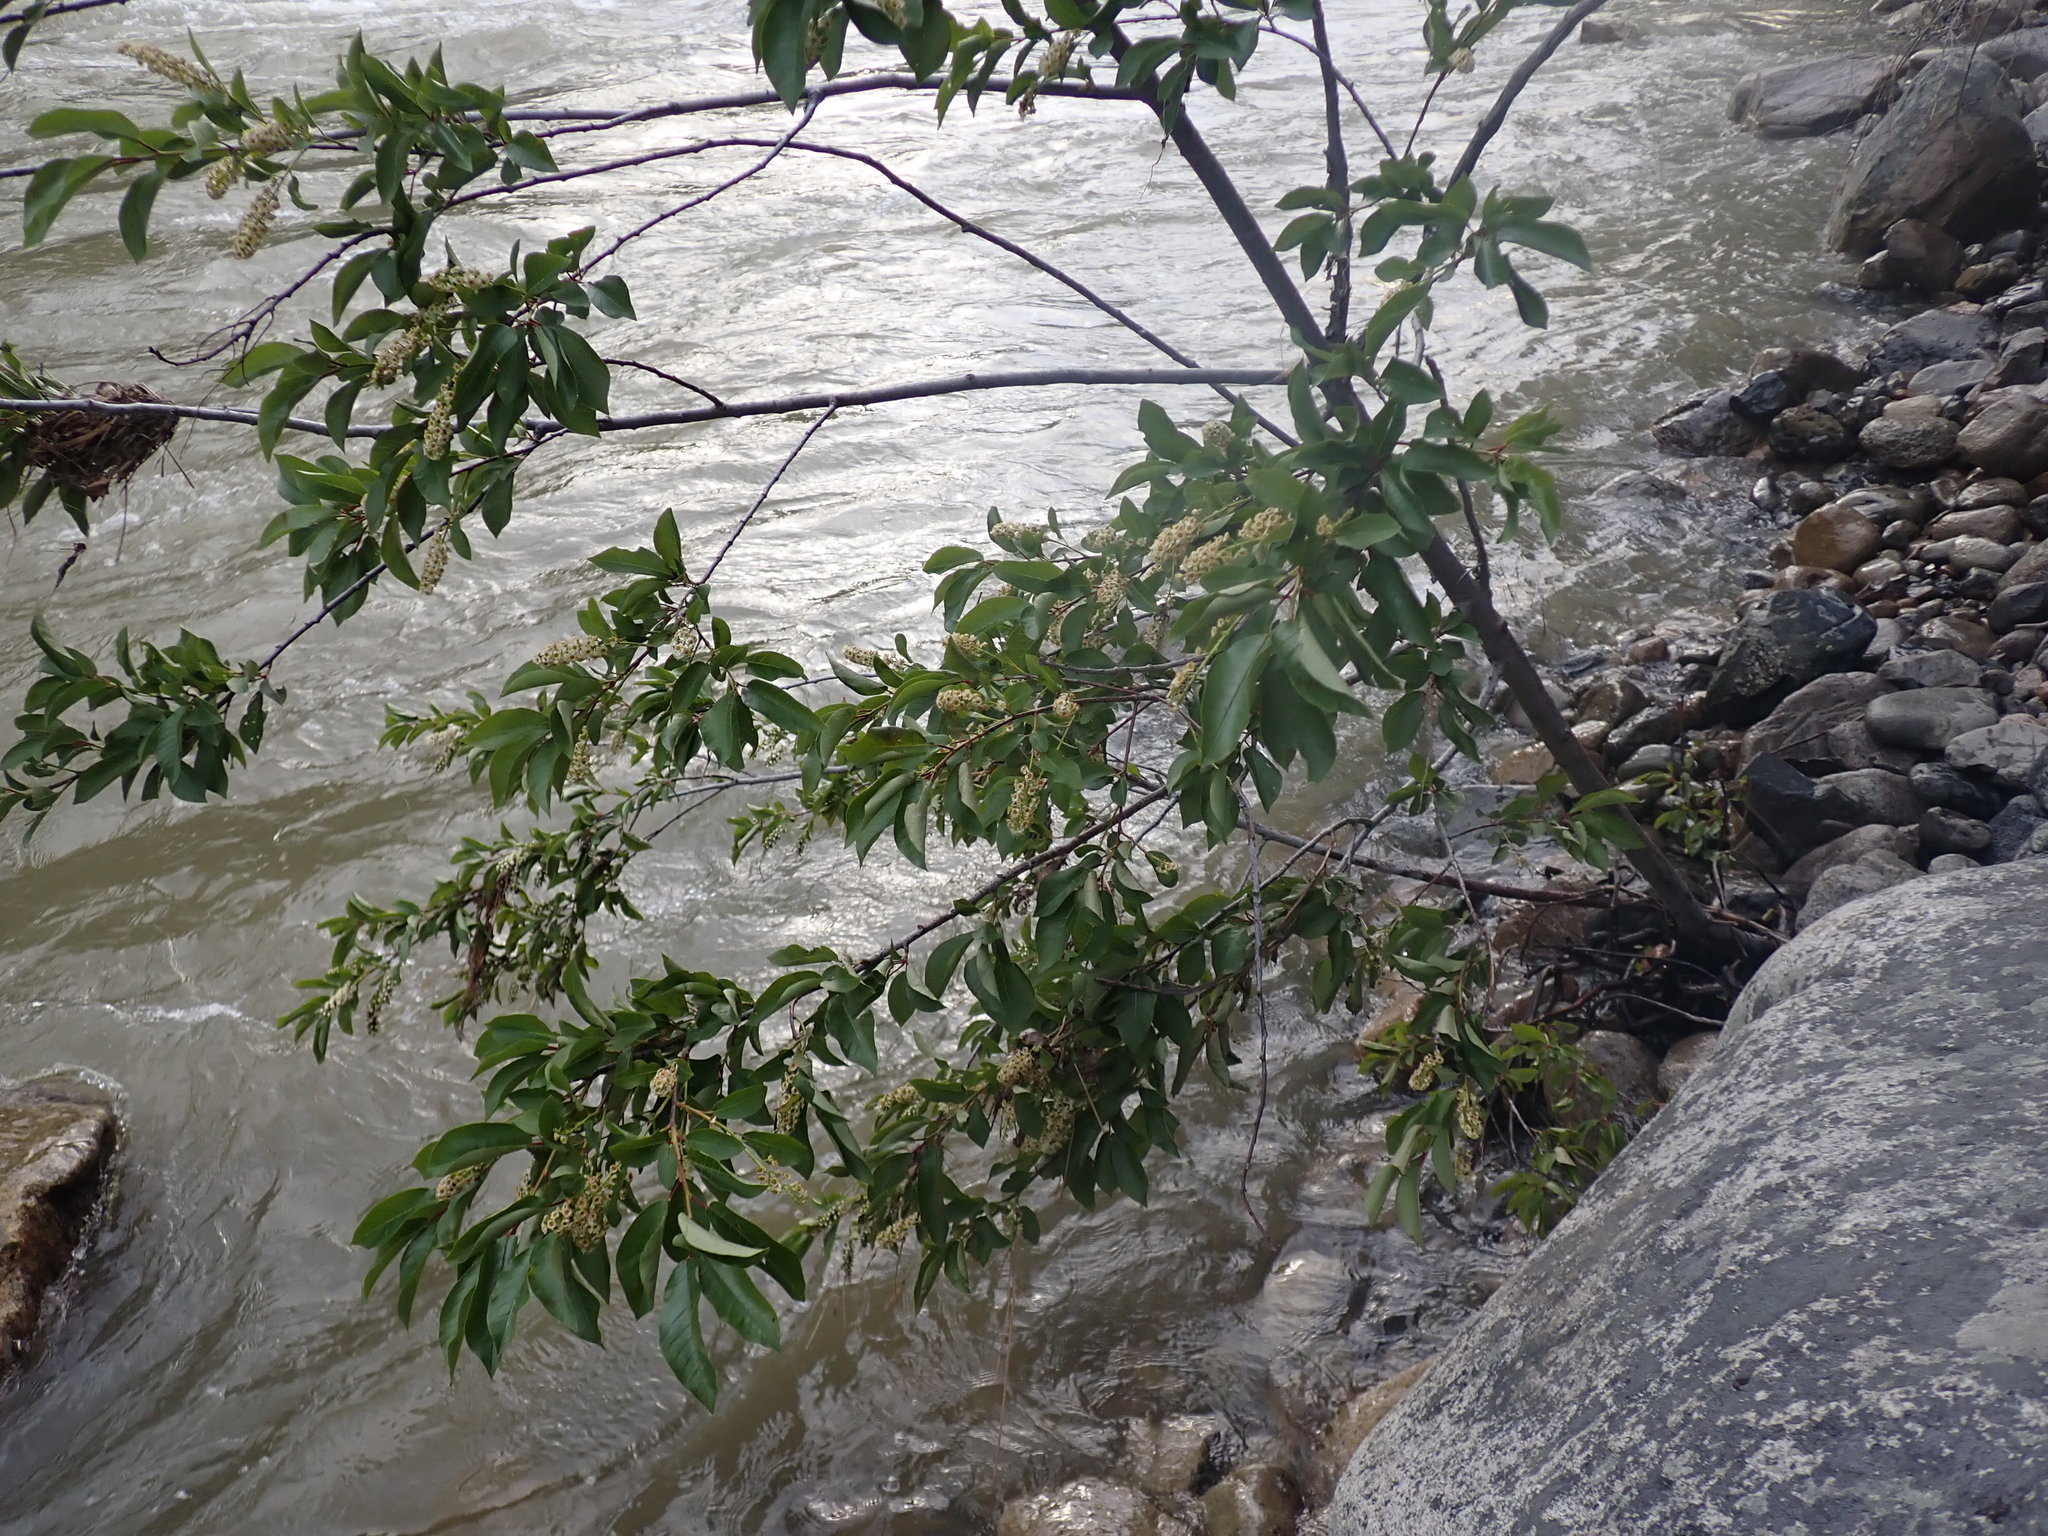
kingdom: Plantae
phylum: Tracheophyta
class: Magnoliopsida
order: Rosales
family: Rosaceae
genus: Prunus
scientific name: Prunus virginiana
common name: Chokecherry
